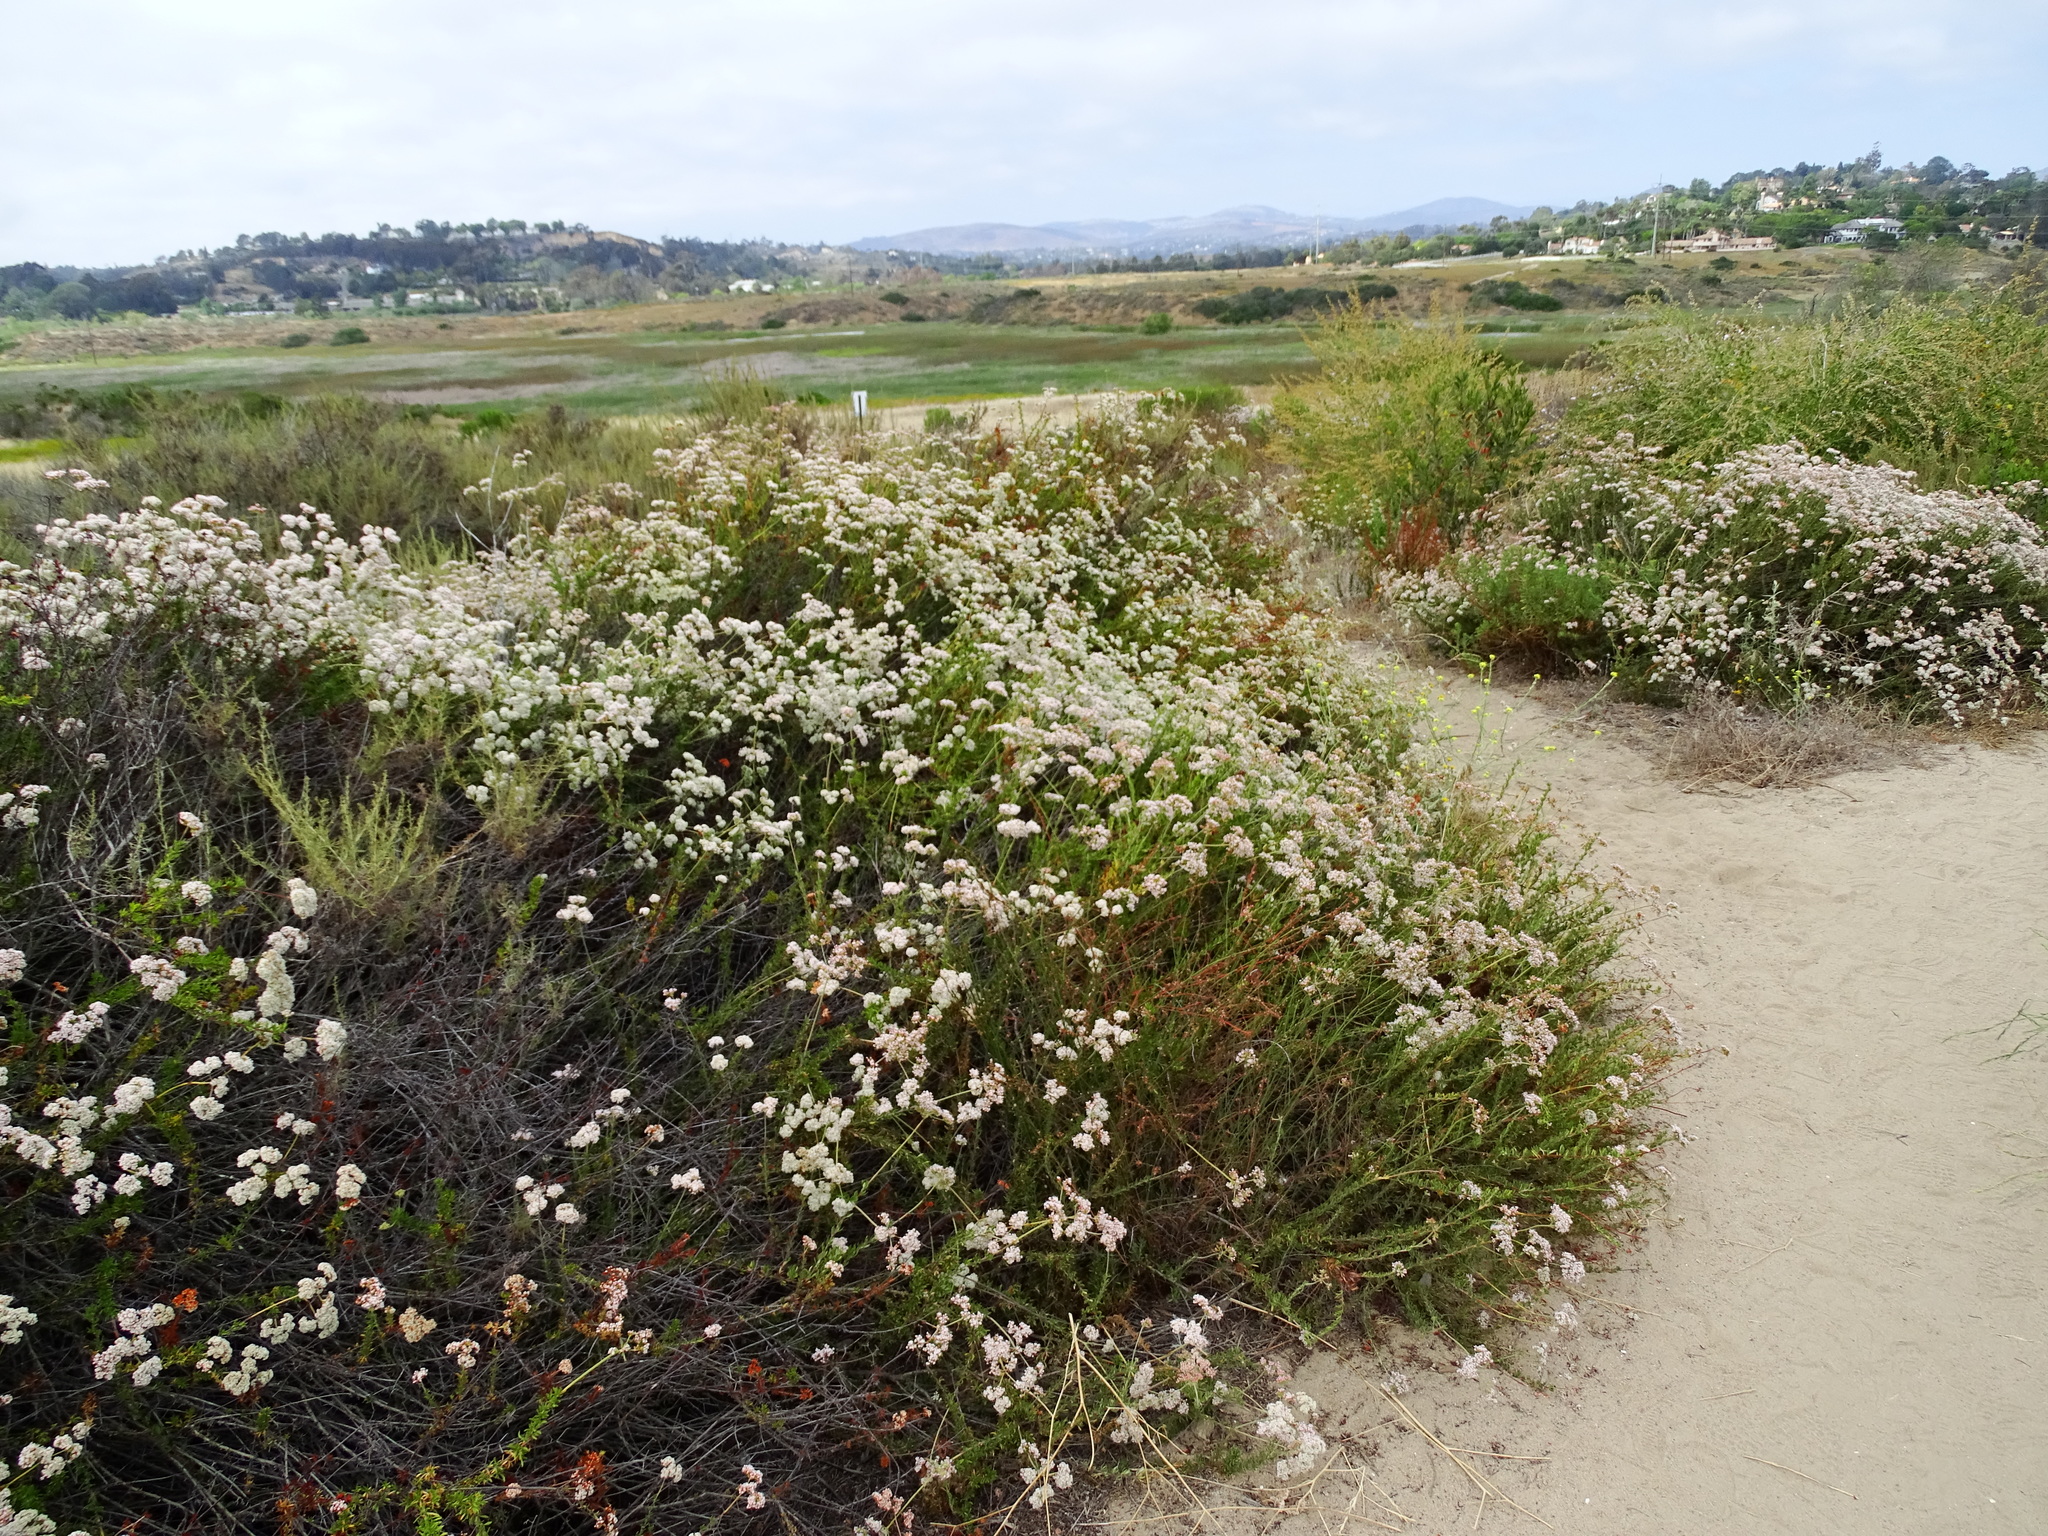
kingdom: Plantae
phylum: Tracheophyta
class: Magnoliopsida
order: Caryophyllales
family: Polygonaceae
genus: Eriogonum
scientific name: Eriogonum fasciculatum
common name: California wild buckwheat
